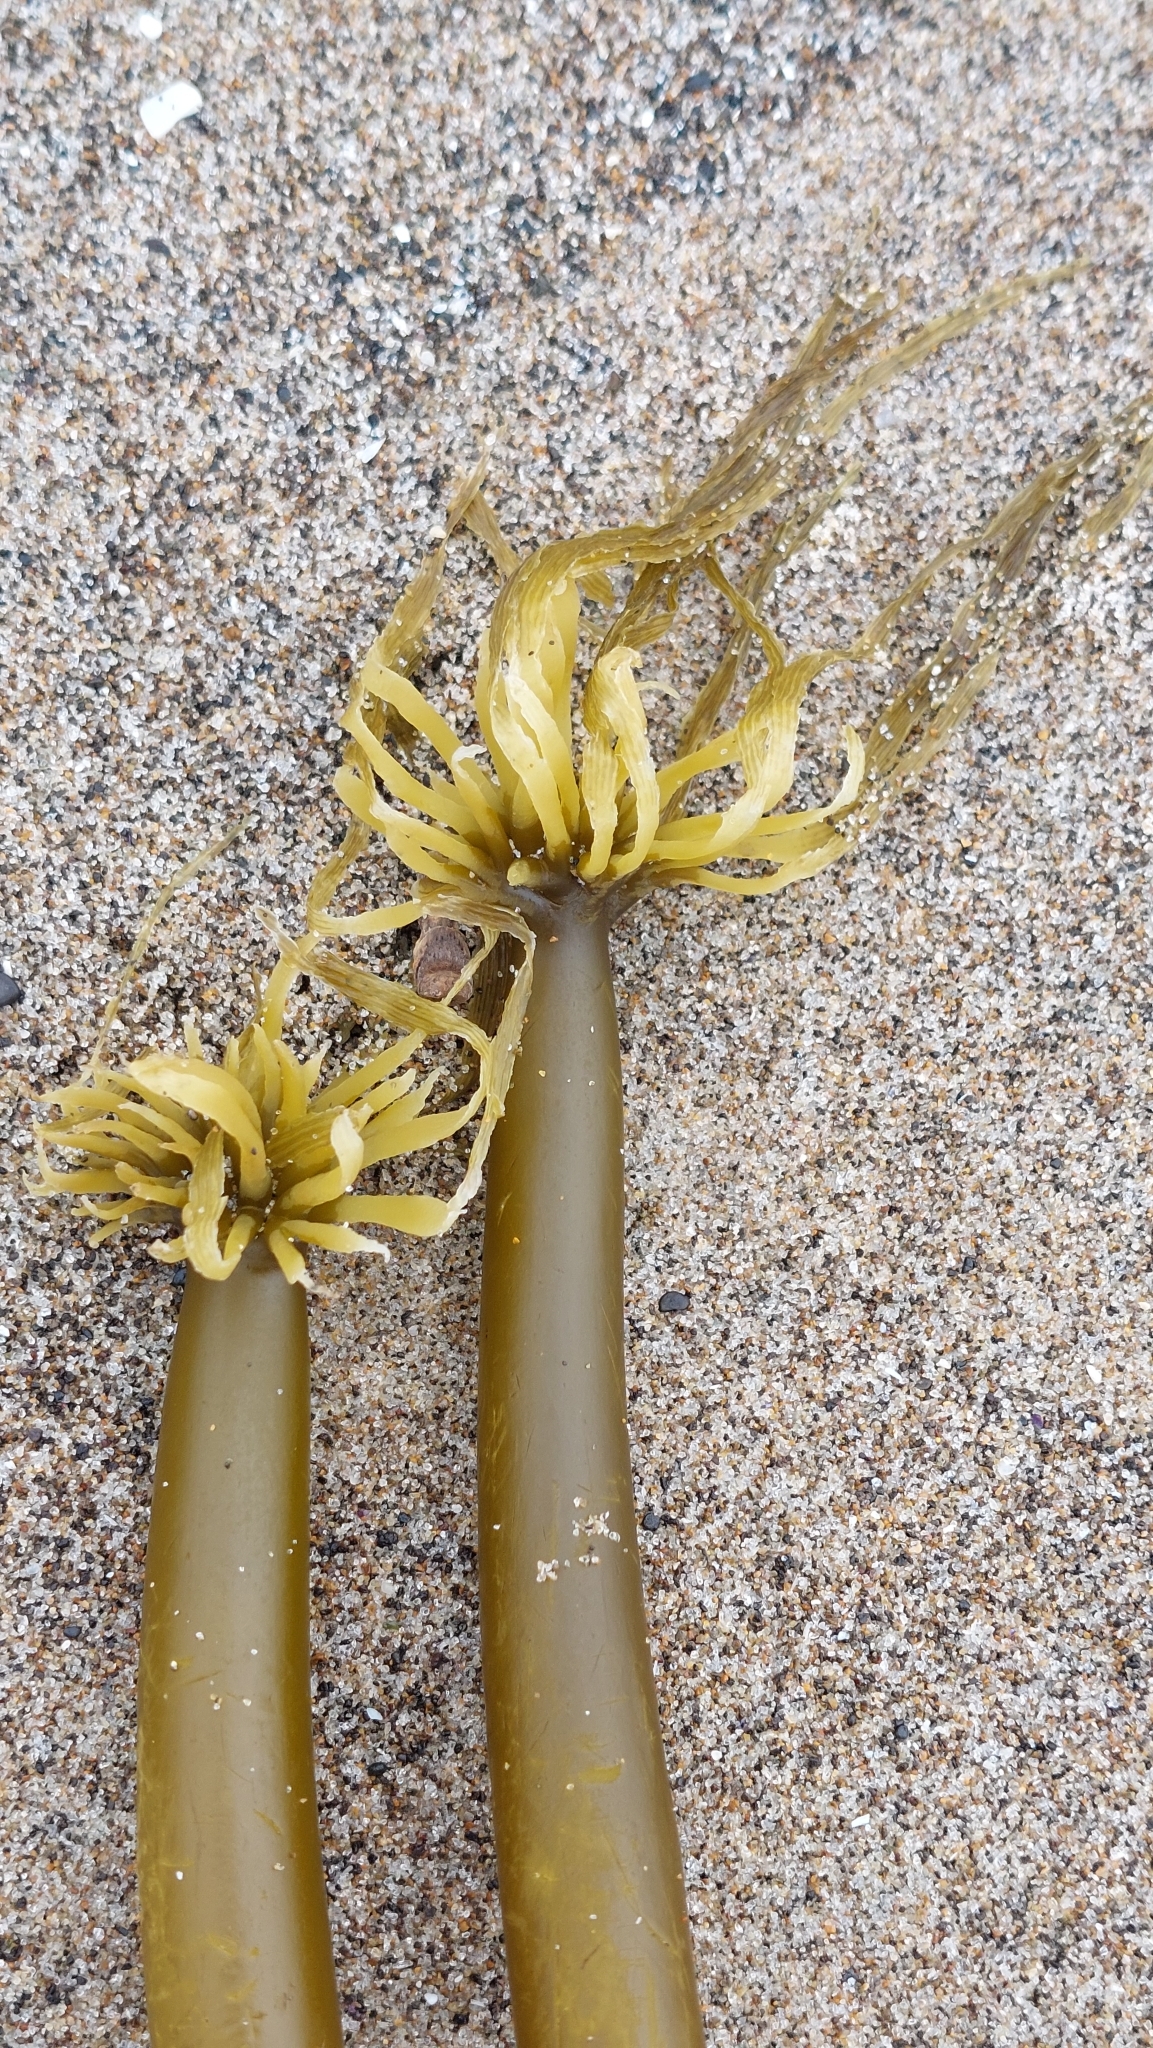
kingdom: Chromista
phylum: Ochrophyta
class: Phaeophyceae
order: Laminariales
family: Laminariaceae
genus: Postelsia
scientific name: Postelsia palmiformis
